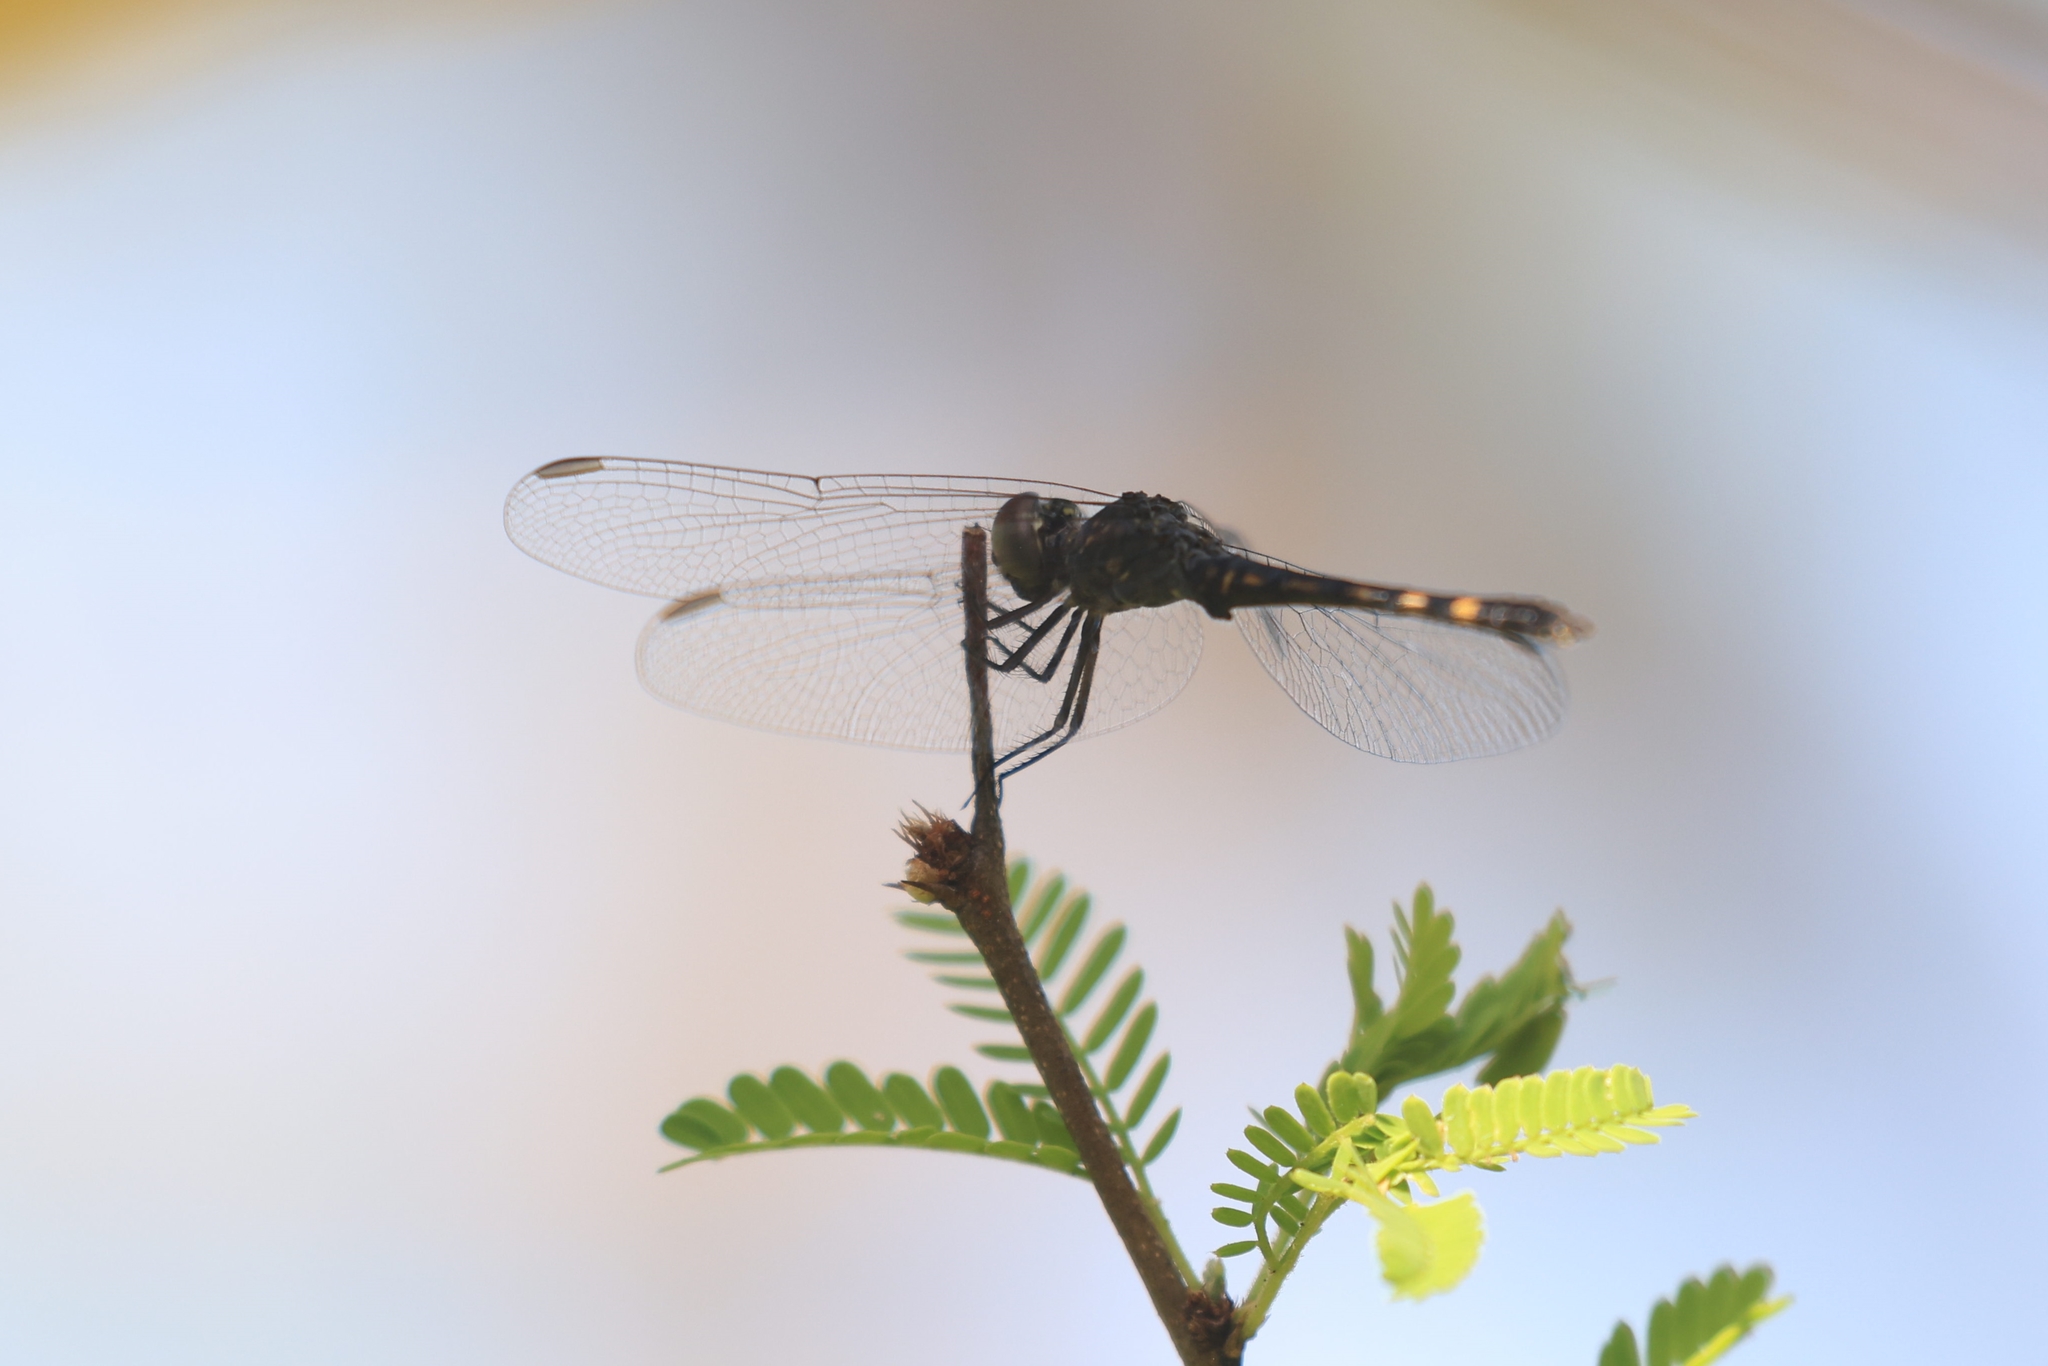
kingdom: Animalia
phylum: Arthropoda
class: Insecta
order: Odonata
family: Libellulidae
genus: Erythrodiplax
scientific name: Erythrodiplax berenice
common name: Seaside dragonlet
